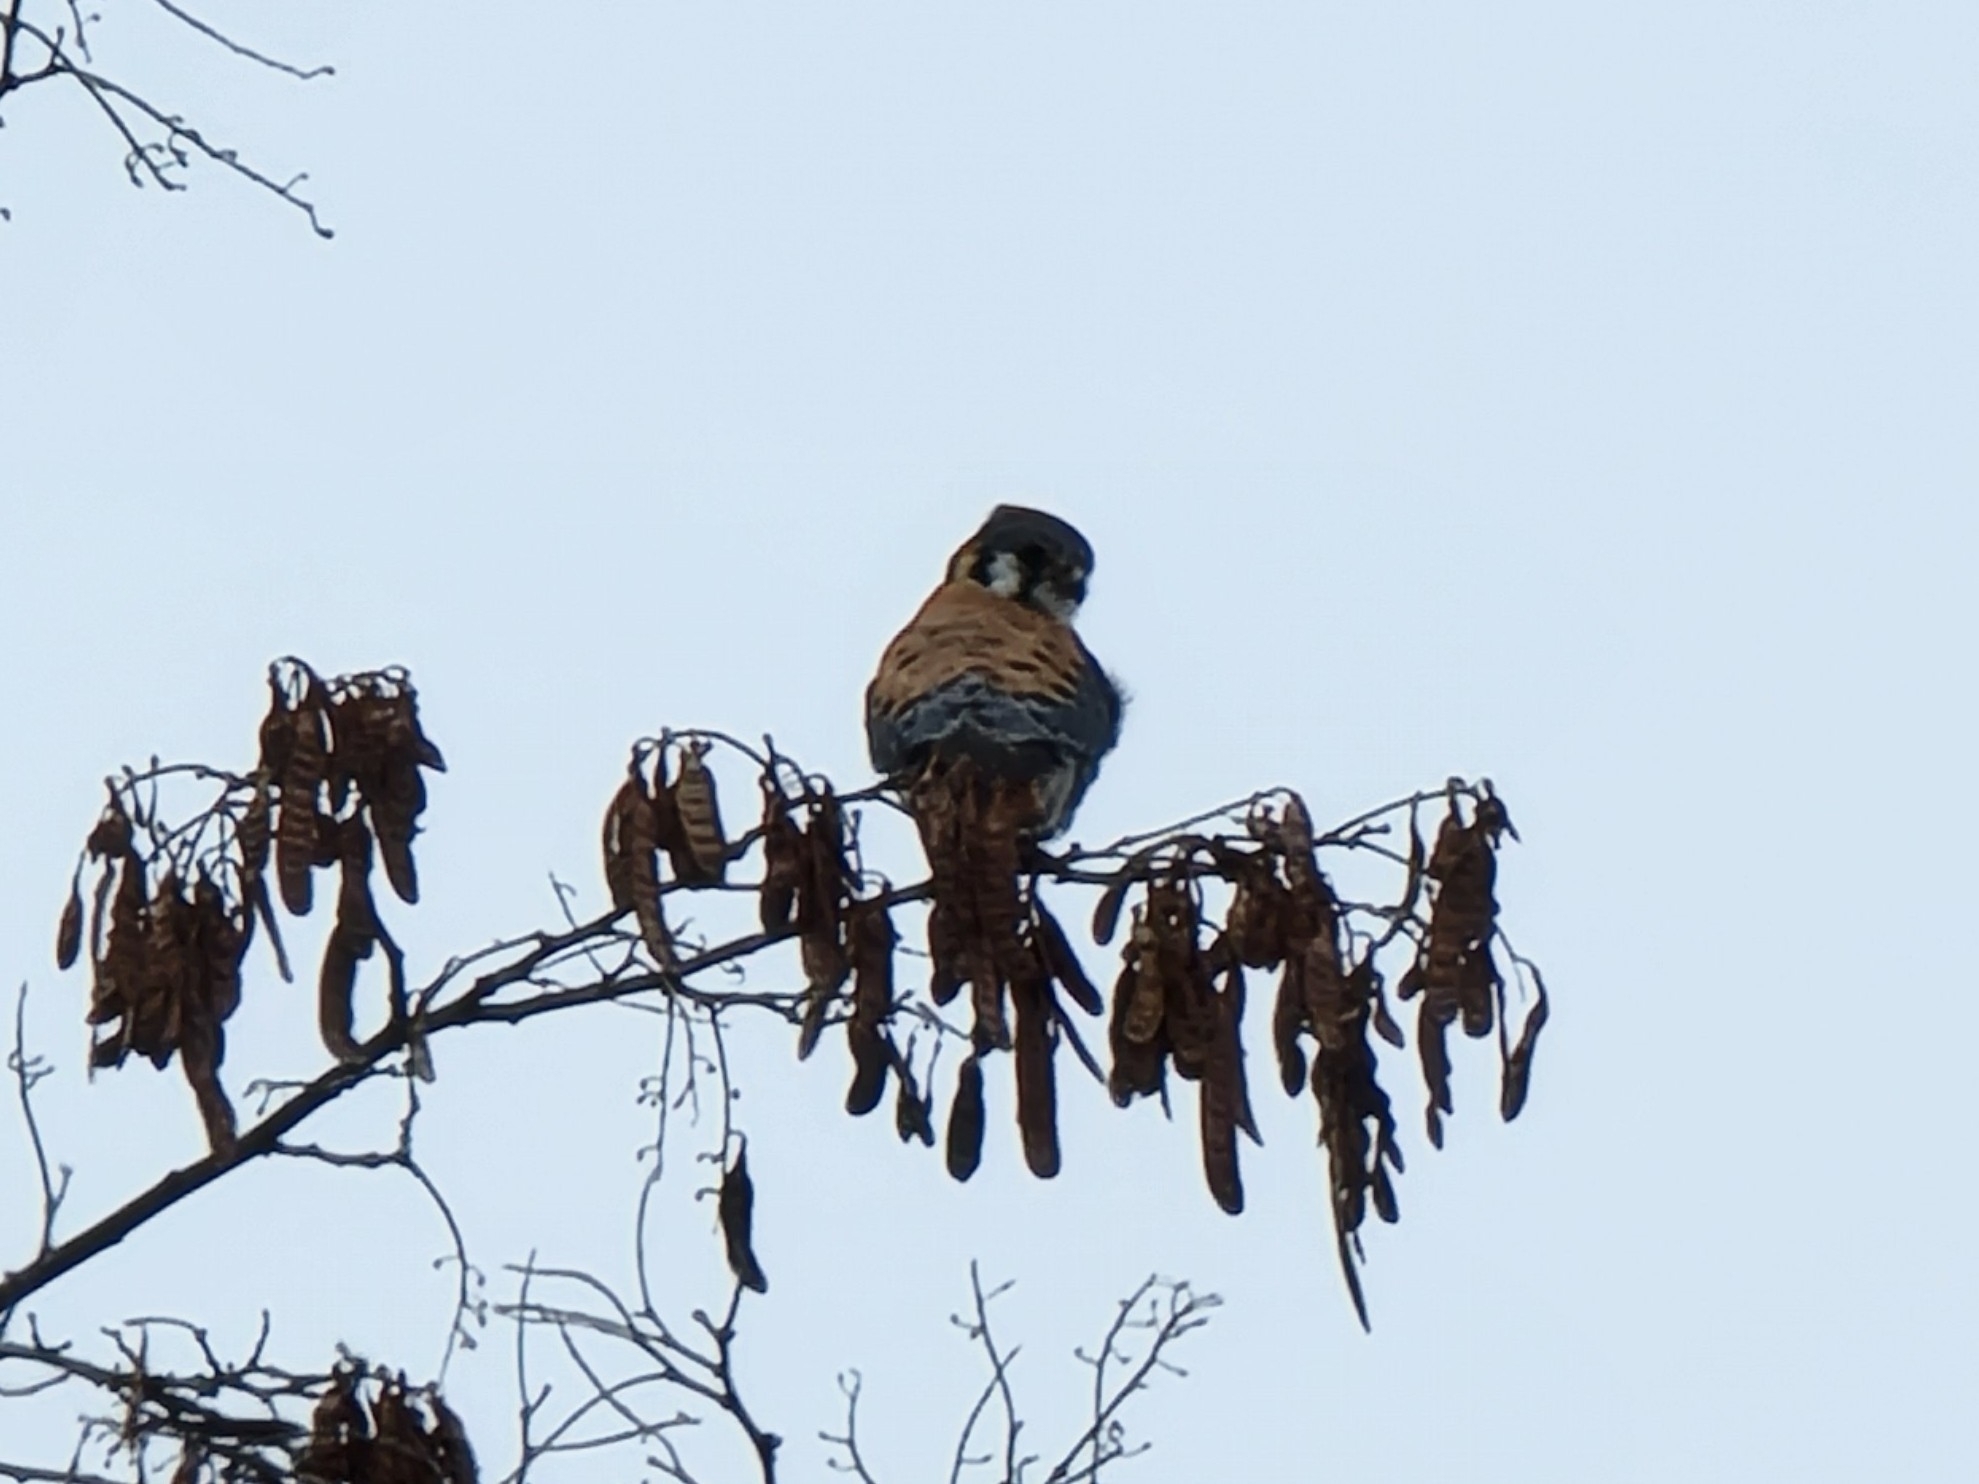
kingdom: Animalia
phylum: Chordata
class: Aves
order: Falconiformes
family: Falconidae
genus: Falco
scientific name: Falco sparverius
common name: American kestrel
